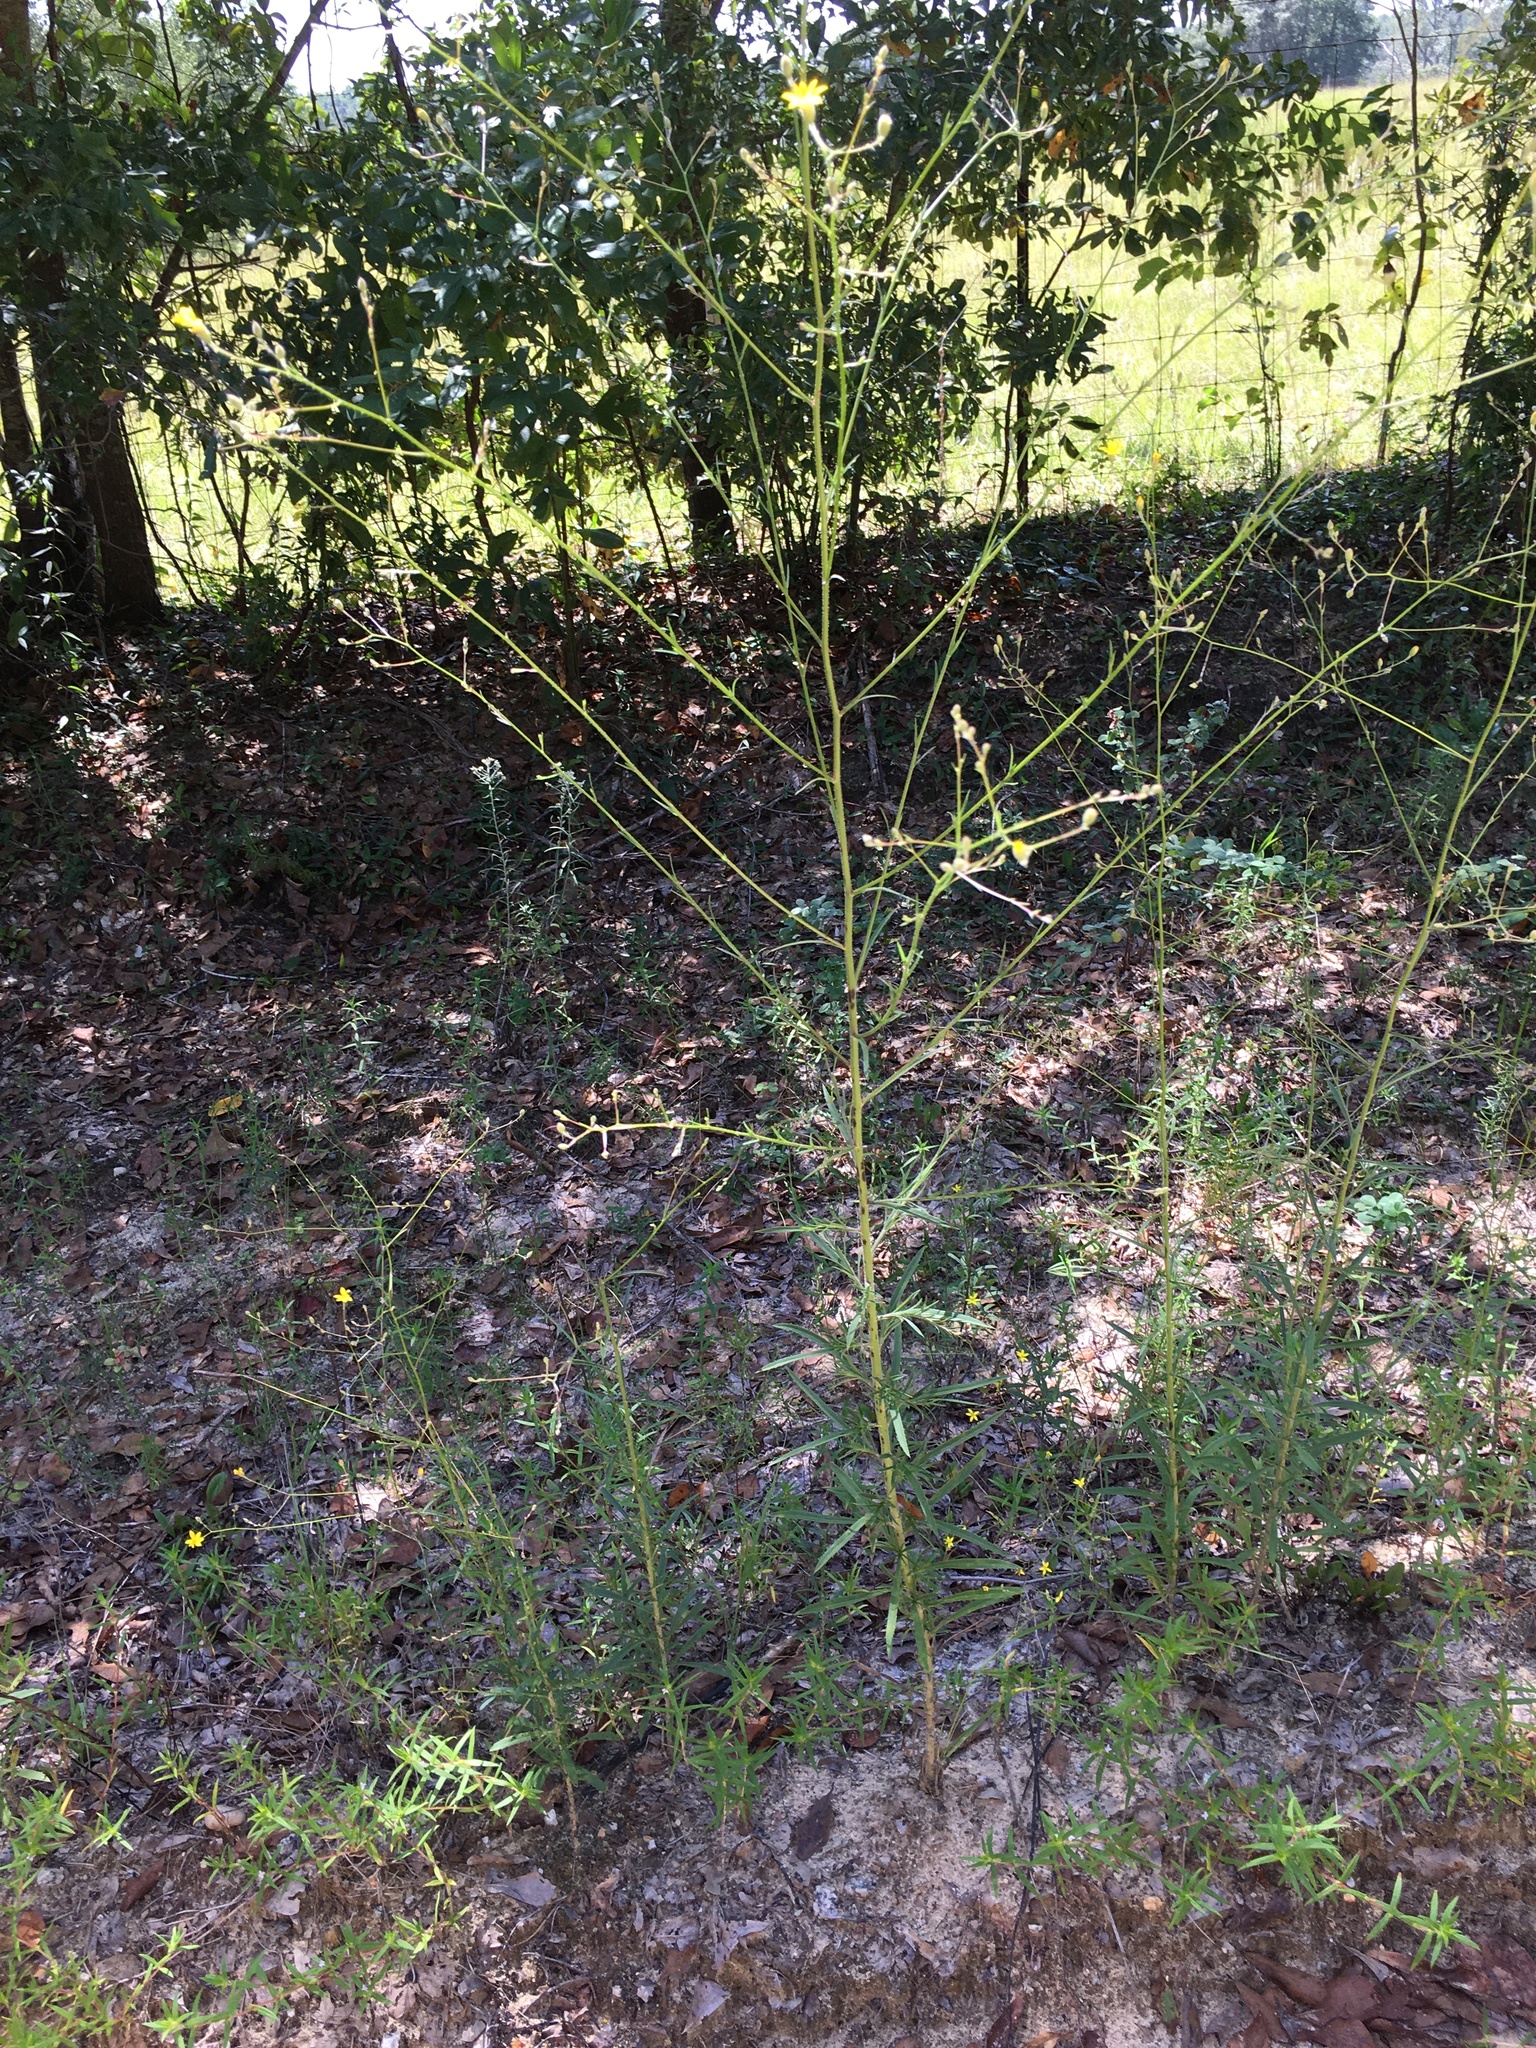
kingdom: Plantae
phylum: Tracheophyta
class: Magnoliopsida
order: Asterales
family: Asteraceae
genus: Croptilon
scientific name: Croptilon divaricatum
